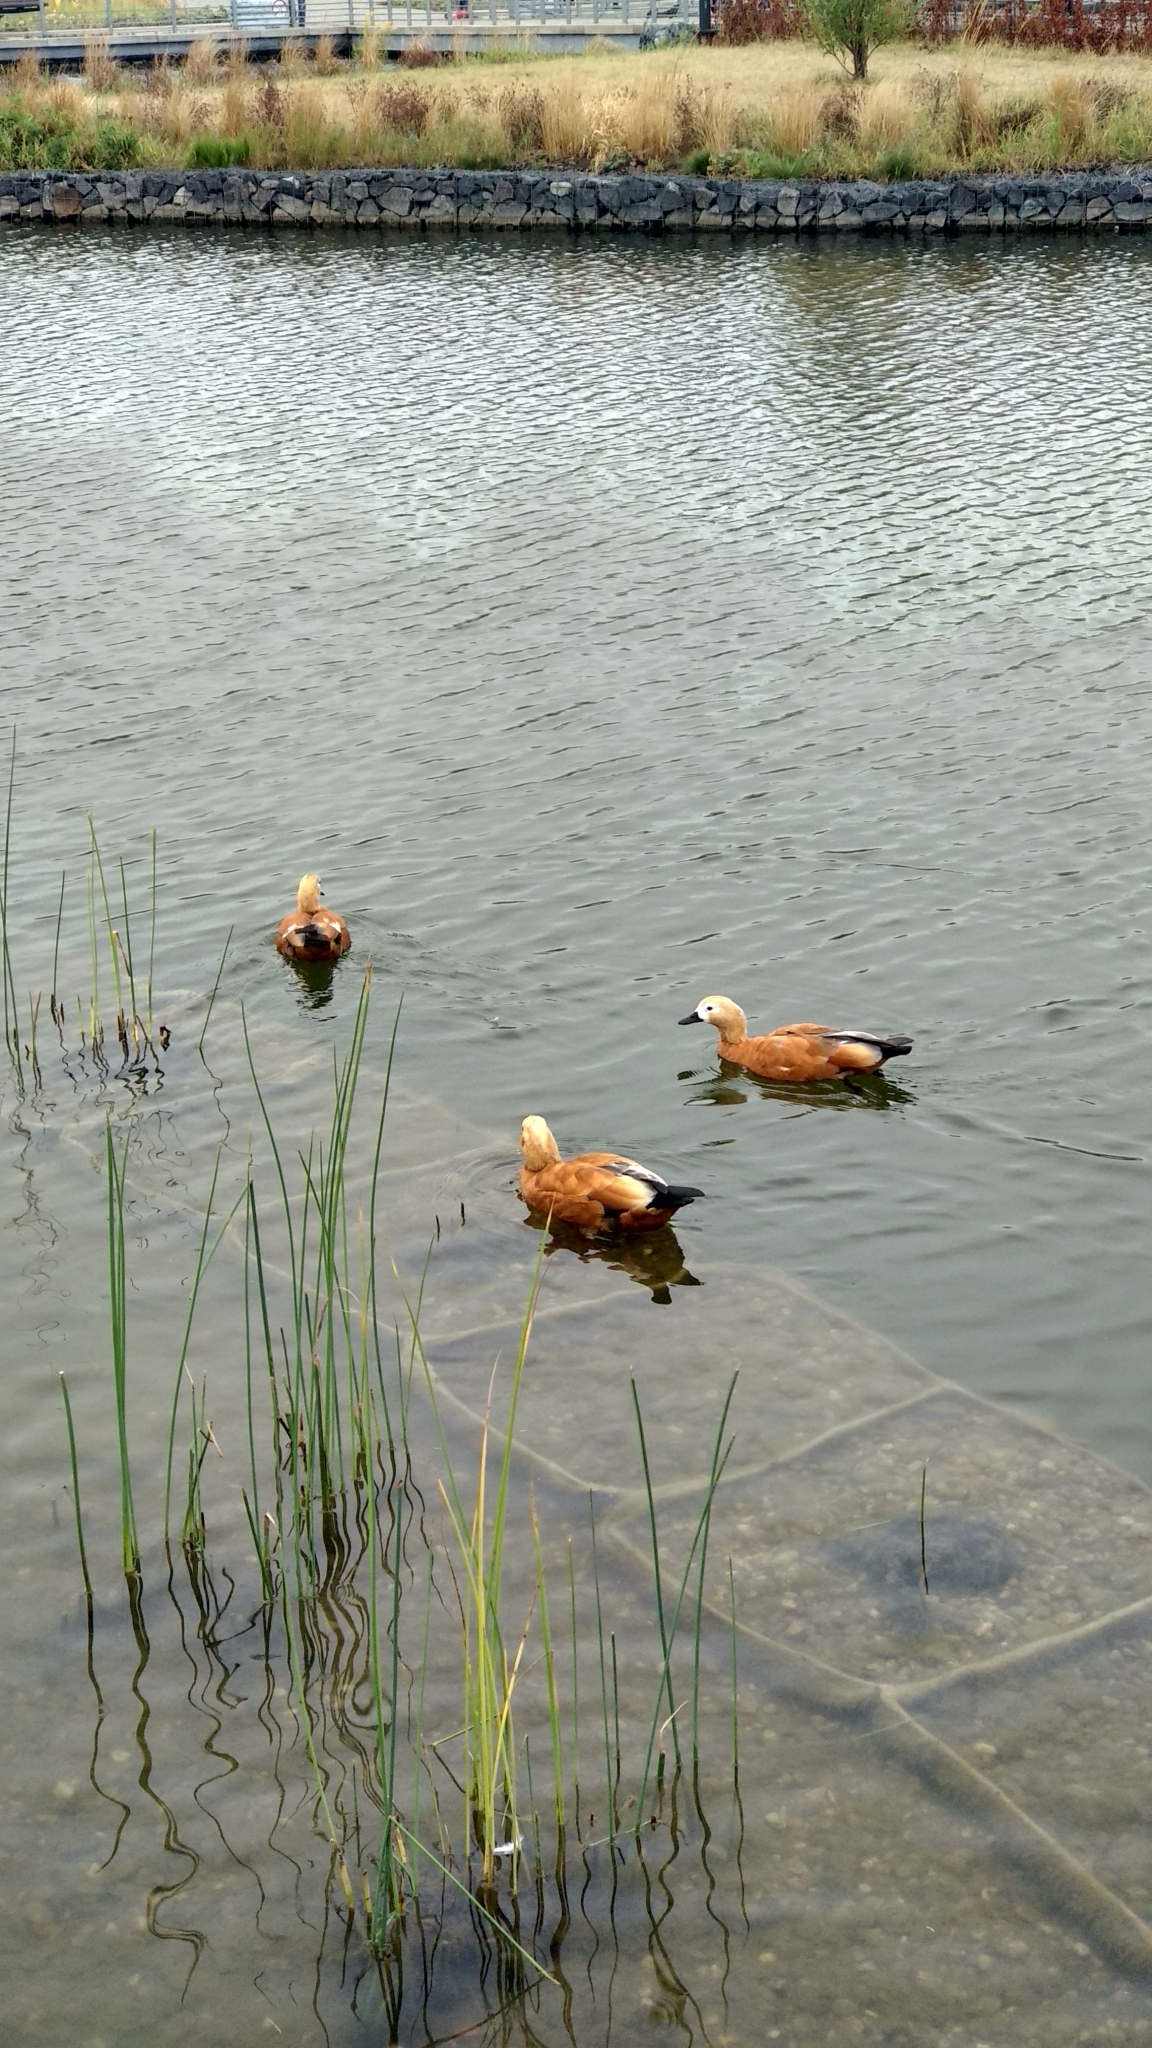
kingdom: Animalia
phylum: Chordata
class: Aves
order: Anseriformes
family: Anatidae
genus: Tadorna
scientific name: Tadorna ferruginea
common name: Ruddy shelduck
